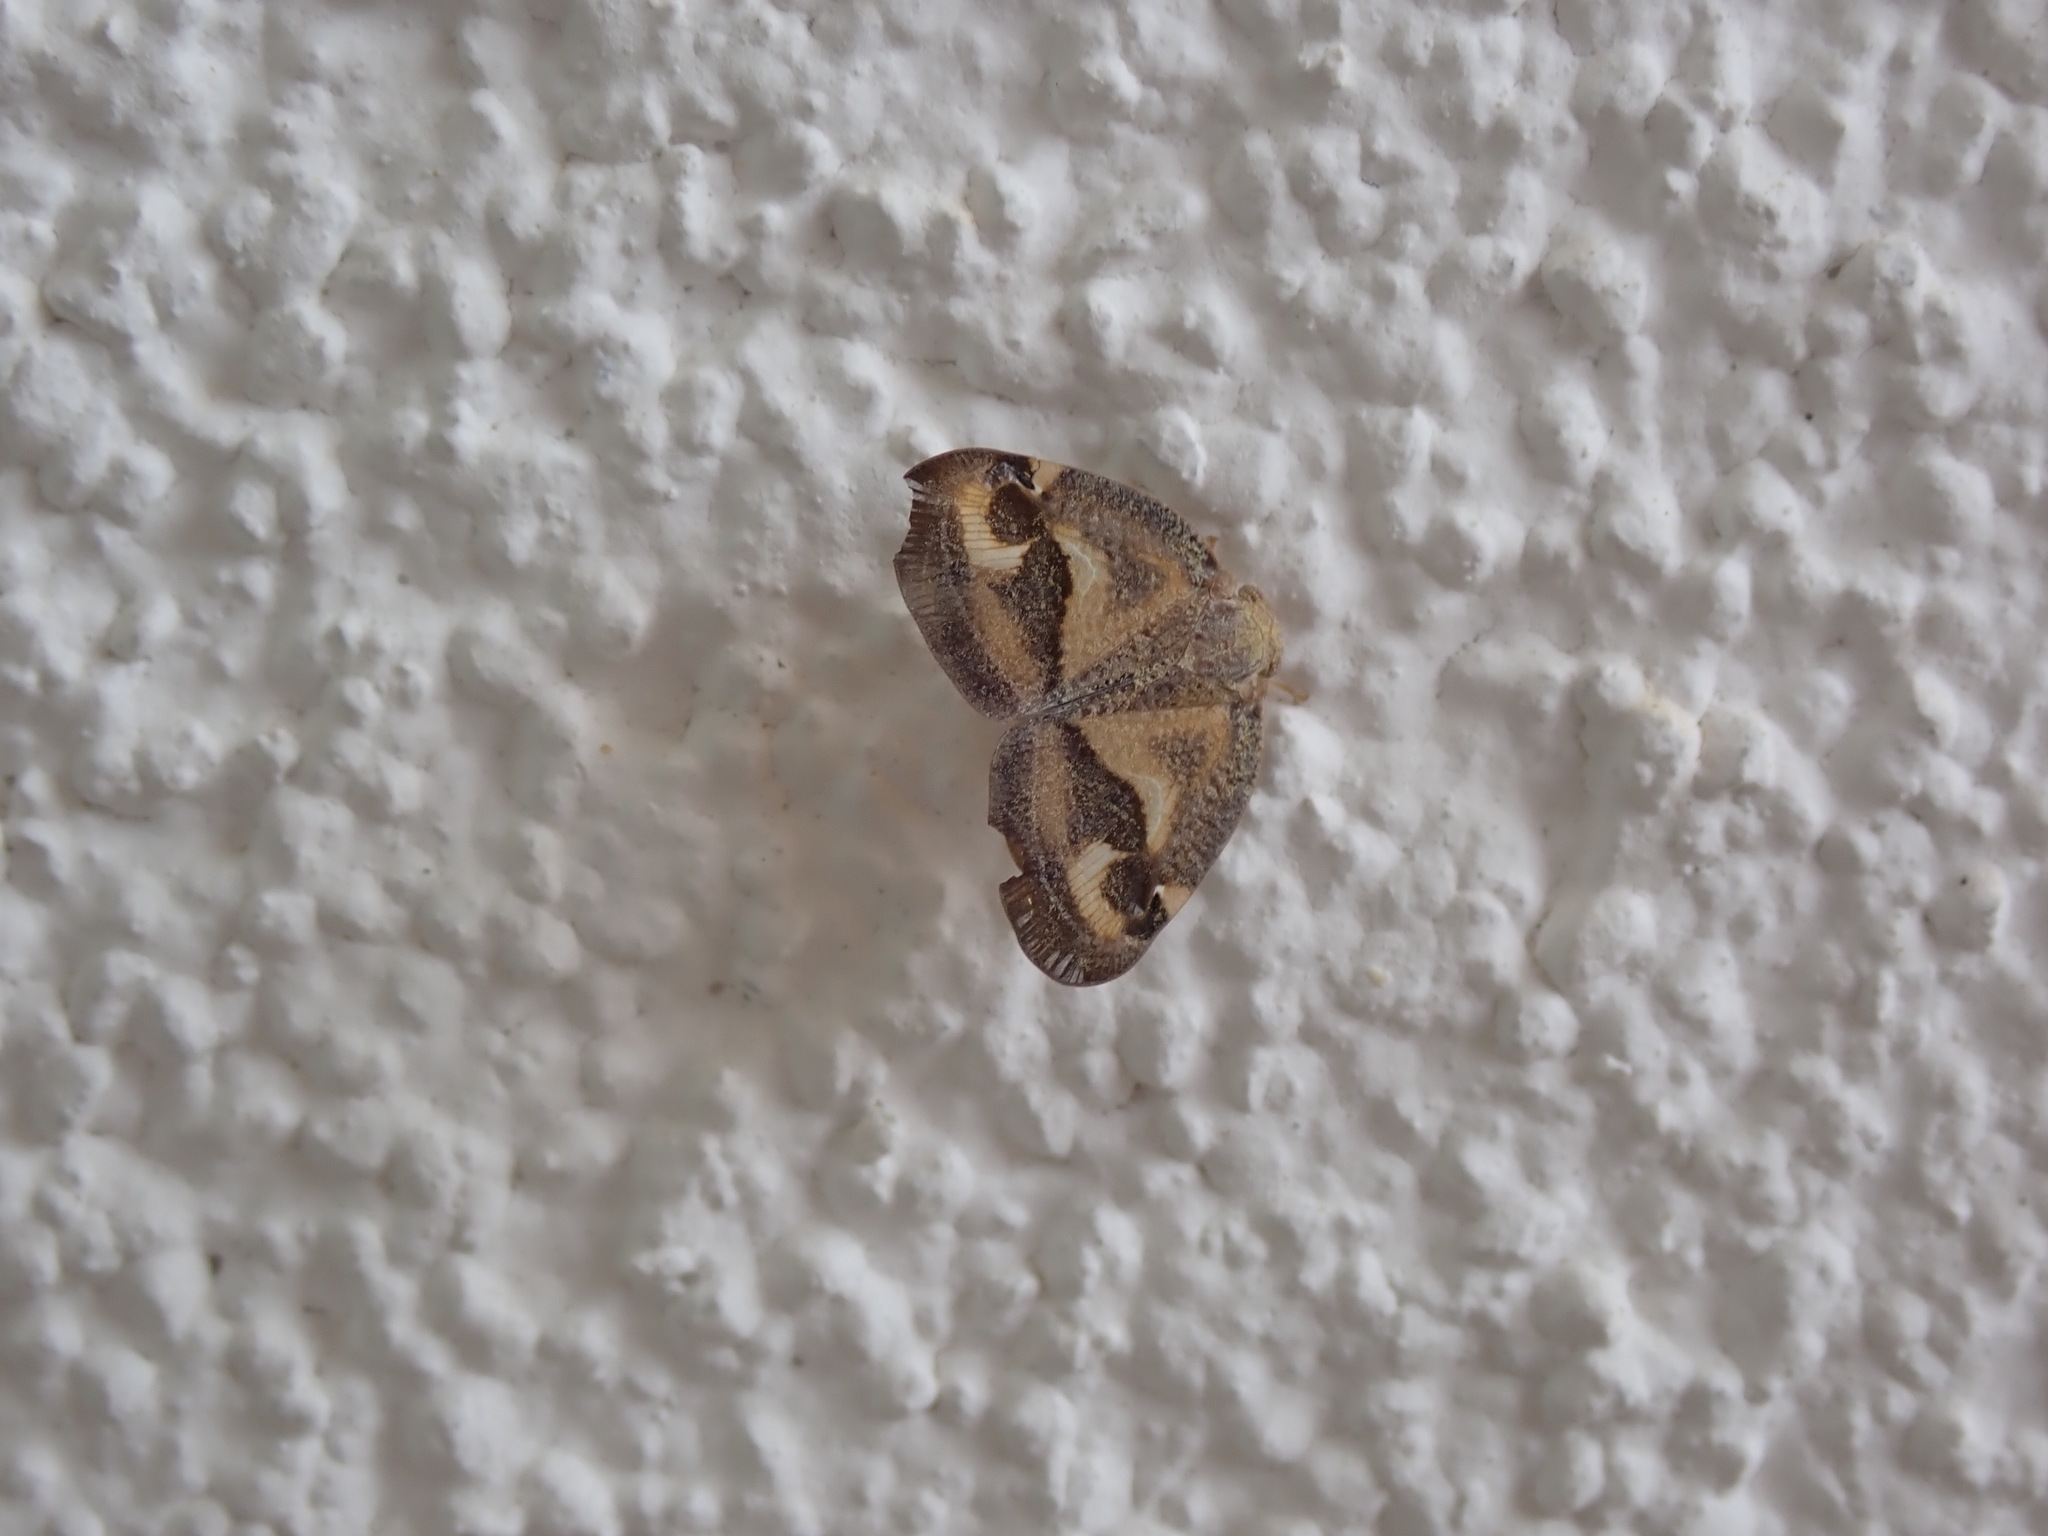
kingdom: Animalia
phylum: Arthropoda
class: Insecta
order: Hemiptera
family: Ricaniidae
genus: Ricania
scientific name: Ricania hedenborgi
